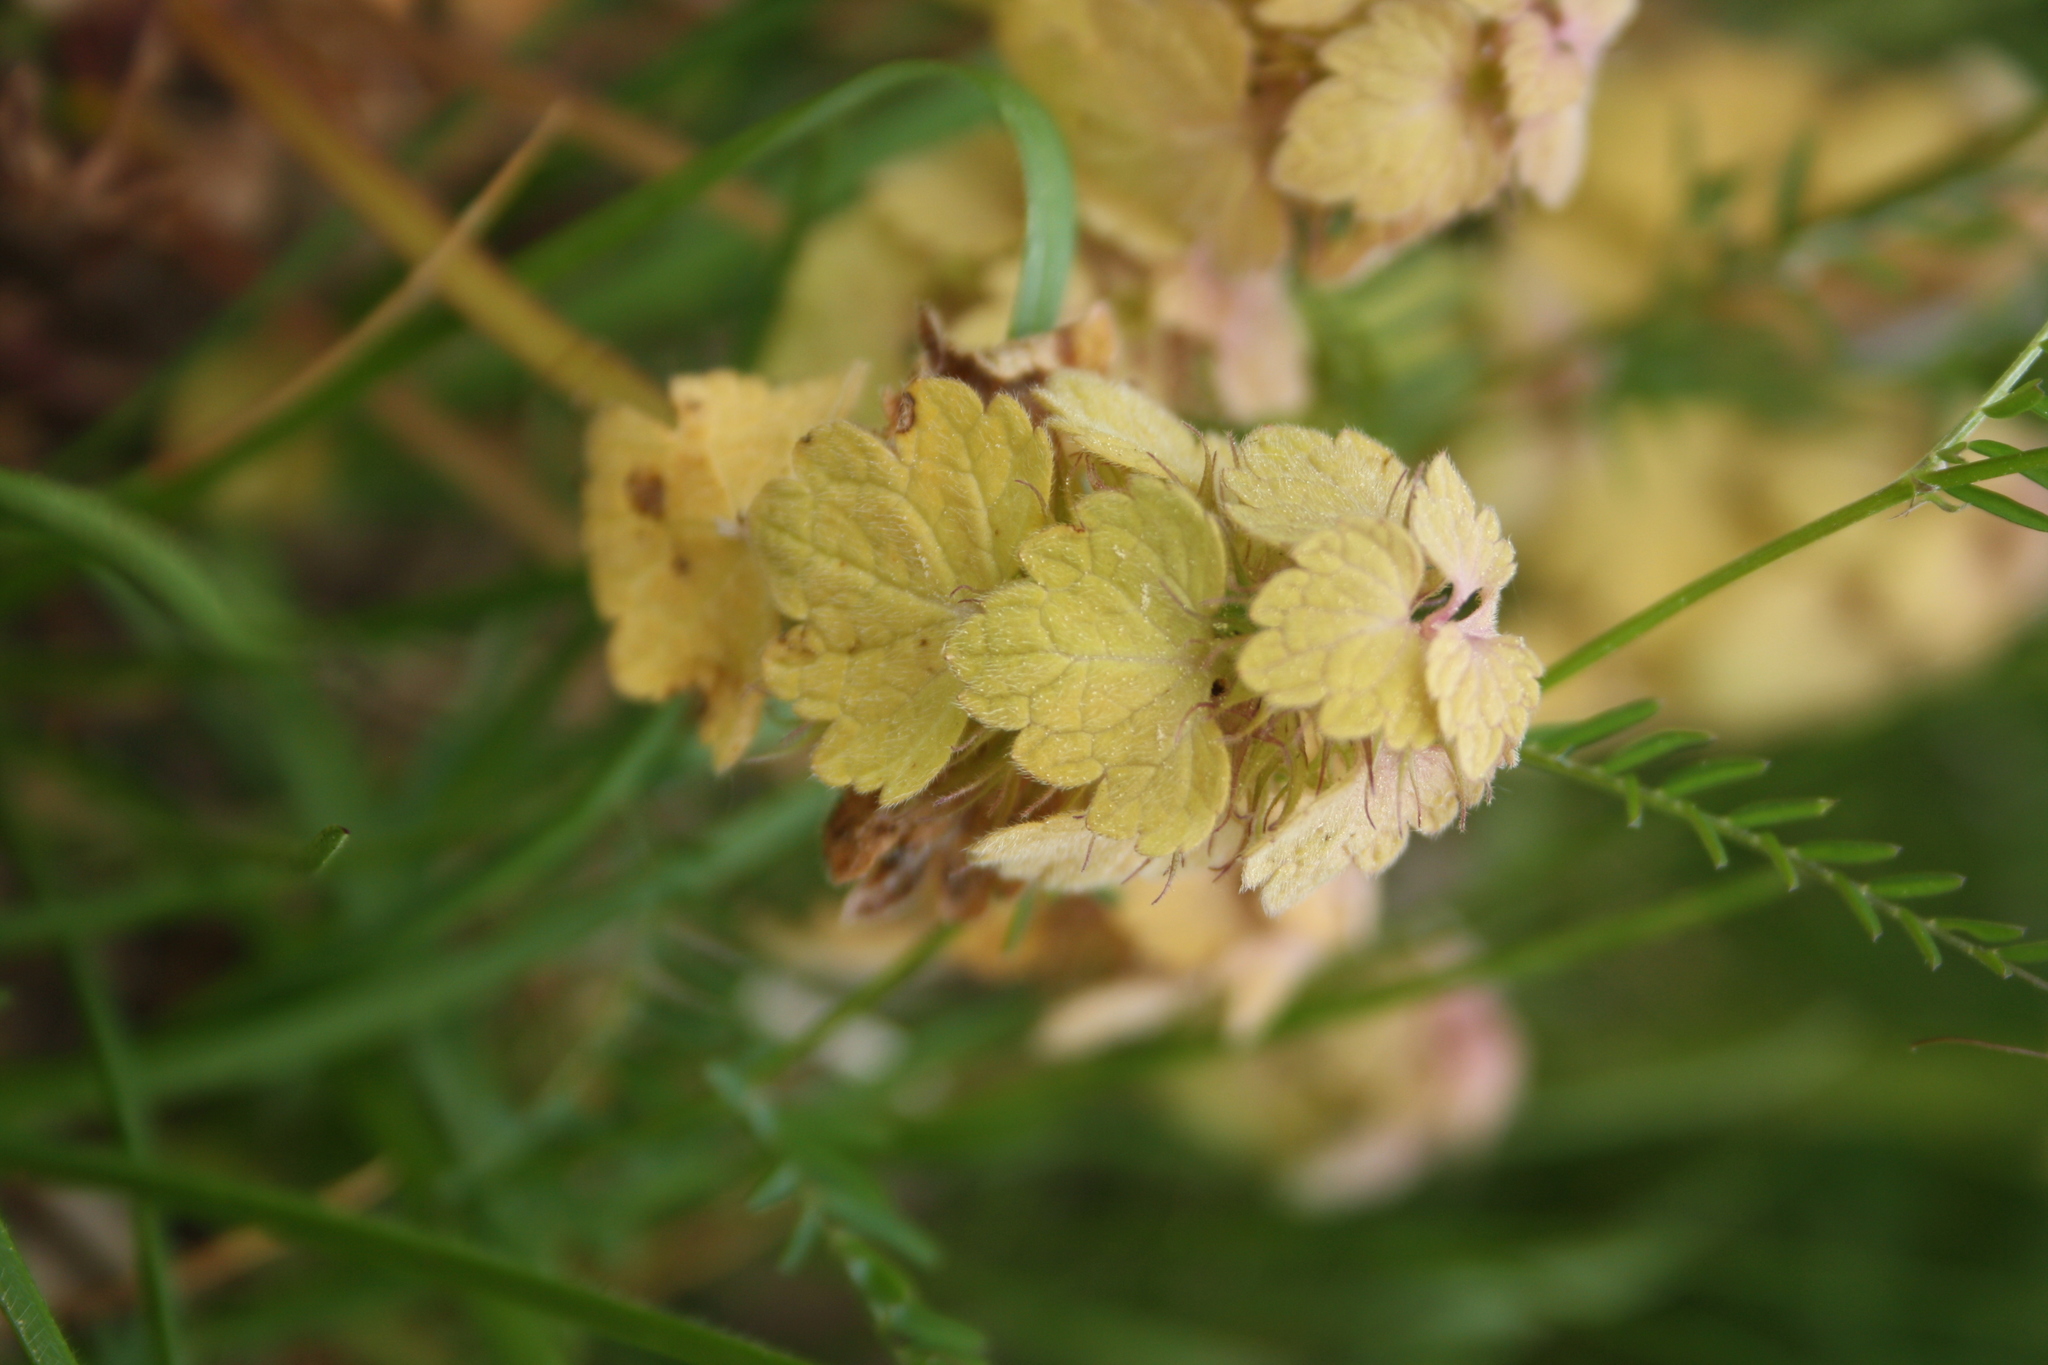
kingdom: Plantae
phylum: Tracheophyta
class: Magnoliopsida
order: Lamiales
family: Lamiaceae
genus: Lamium
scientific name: Lamium purpureum
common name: Red dead-nettle
